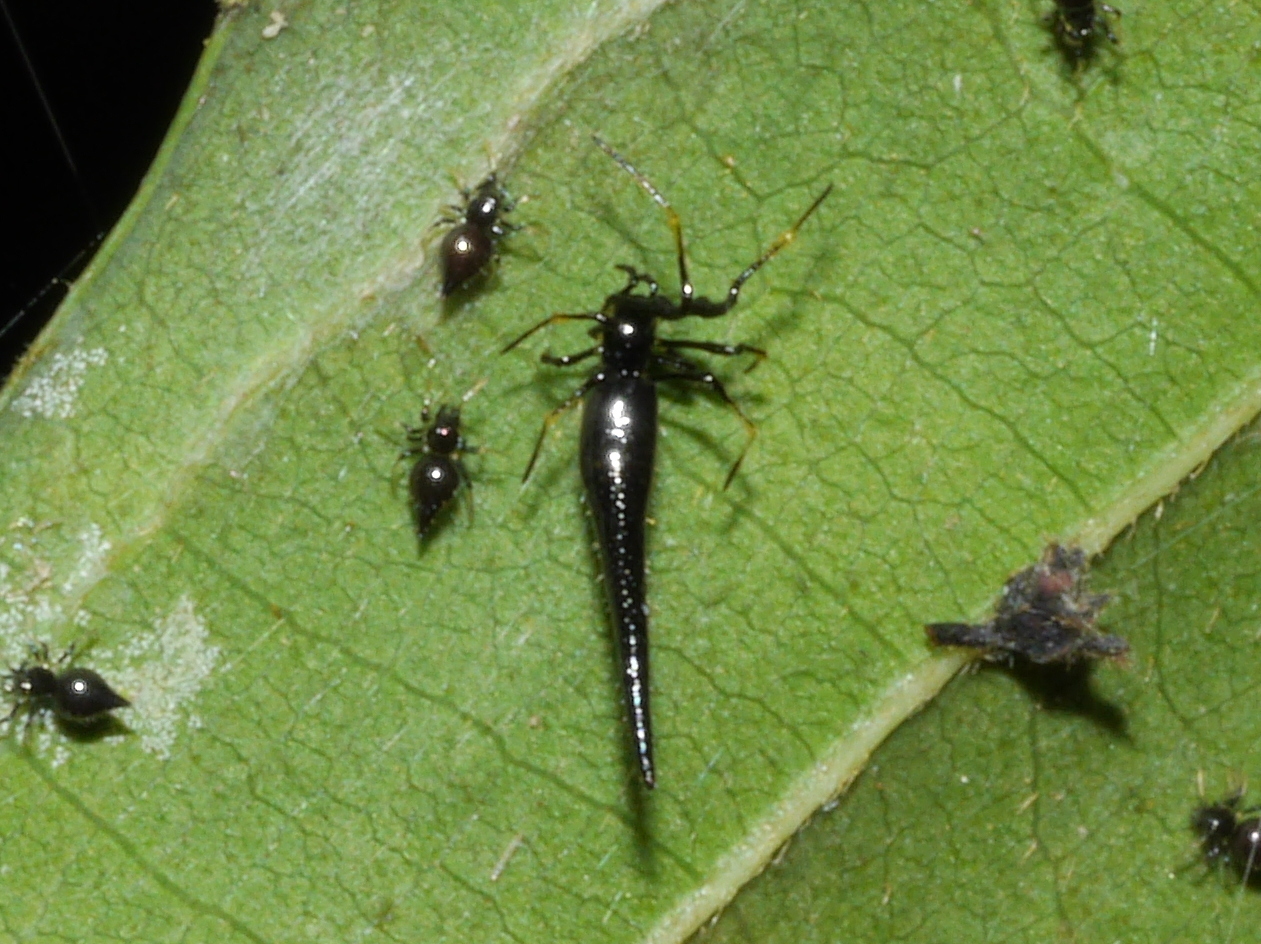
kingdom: Animalia
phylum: Arthropoda
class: Arachnida
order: Araneae
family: Theridiidae
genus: Chikunia
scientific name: Chikunia nigra
